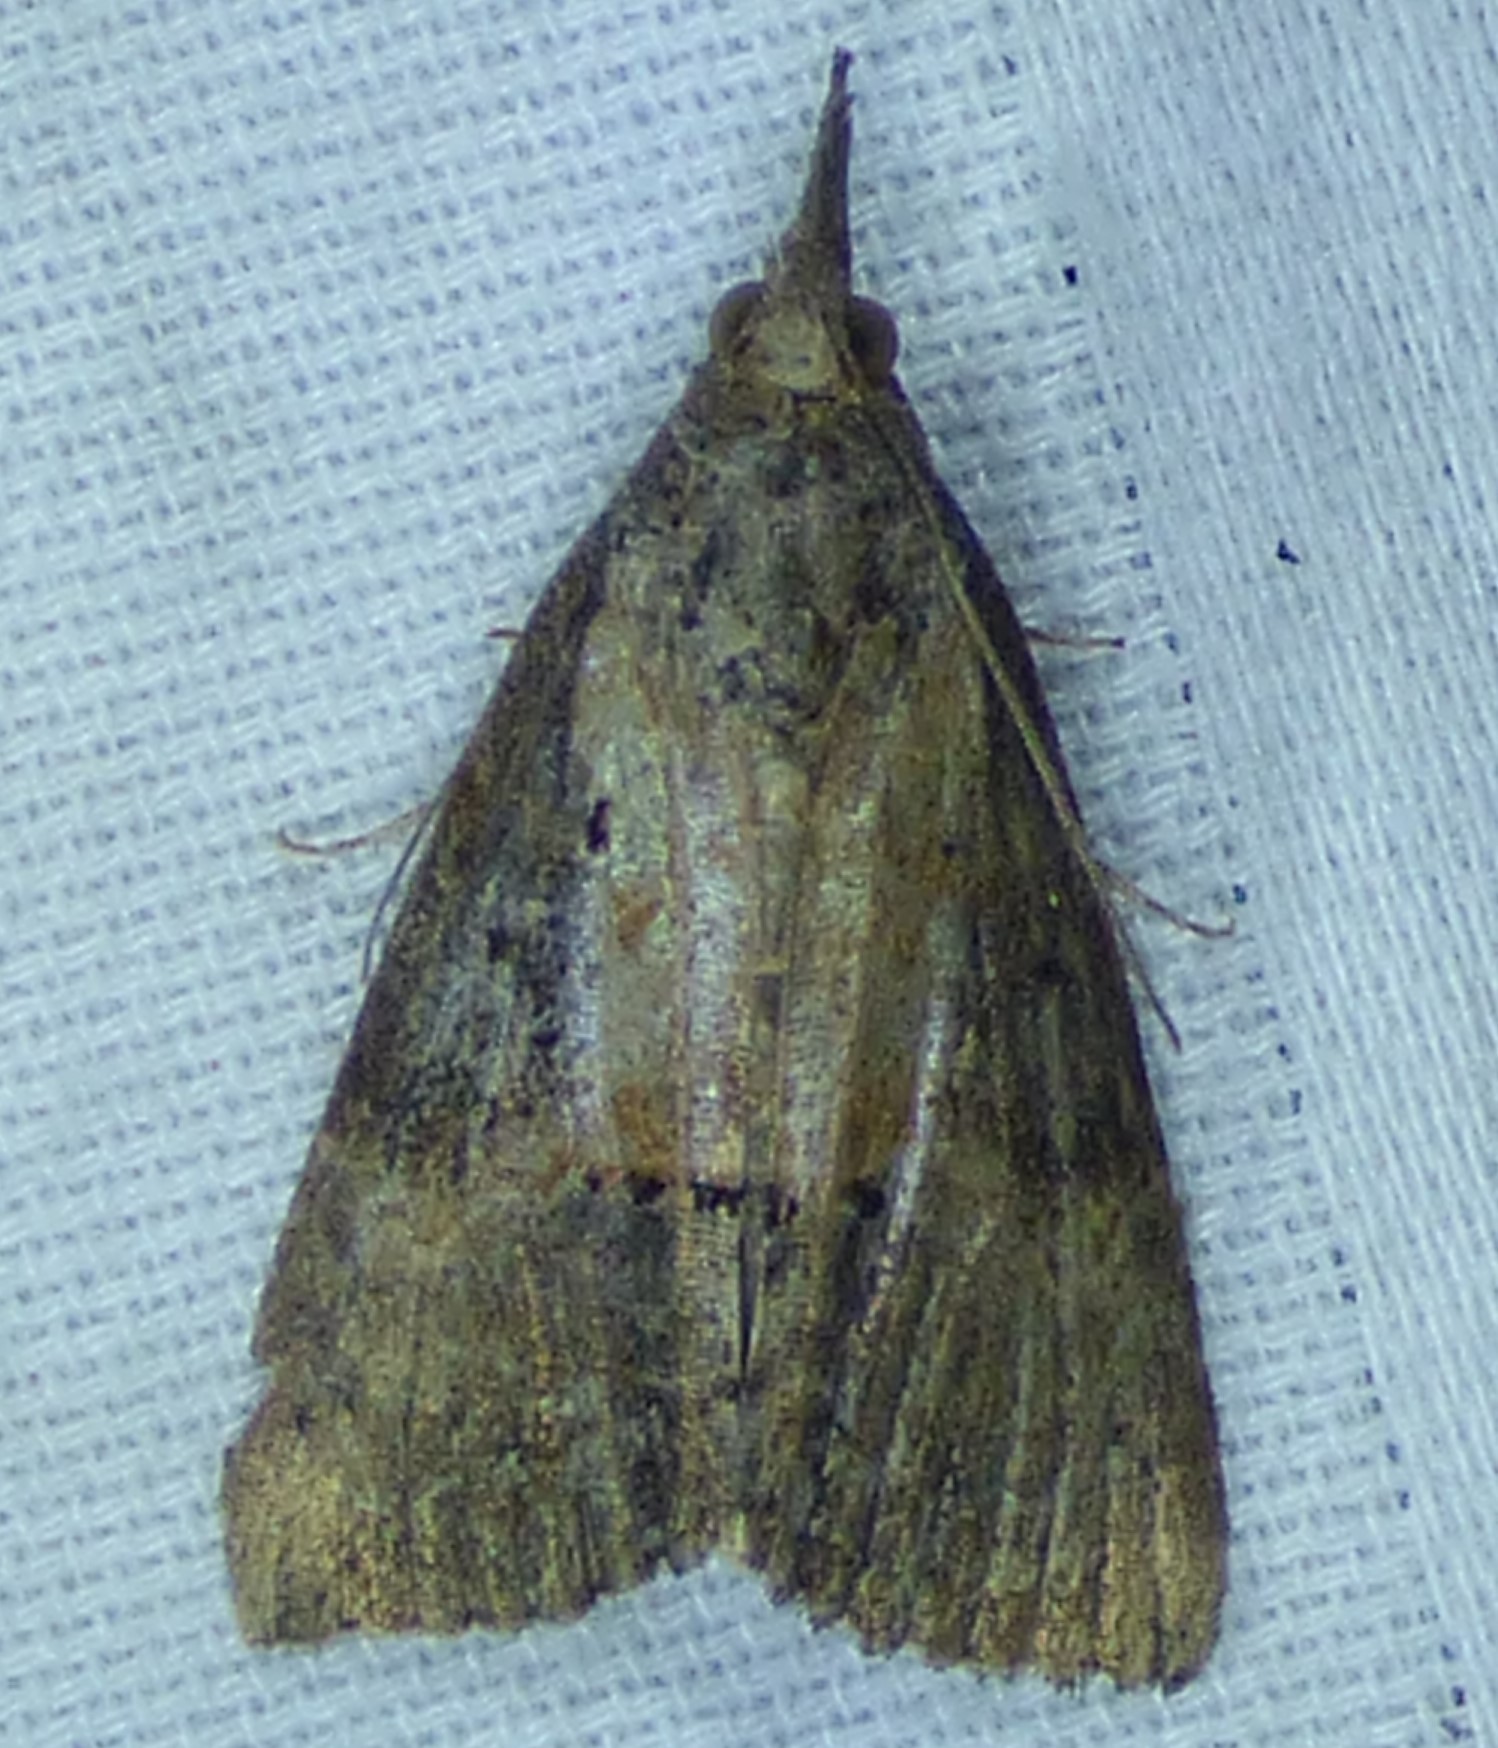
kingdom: Animalia
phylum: Arthropoda
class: Insecta
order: Lepidoptera
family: Erebidae
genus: Hypena
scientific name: Hypena scabra
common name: Green cloverworm
